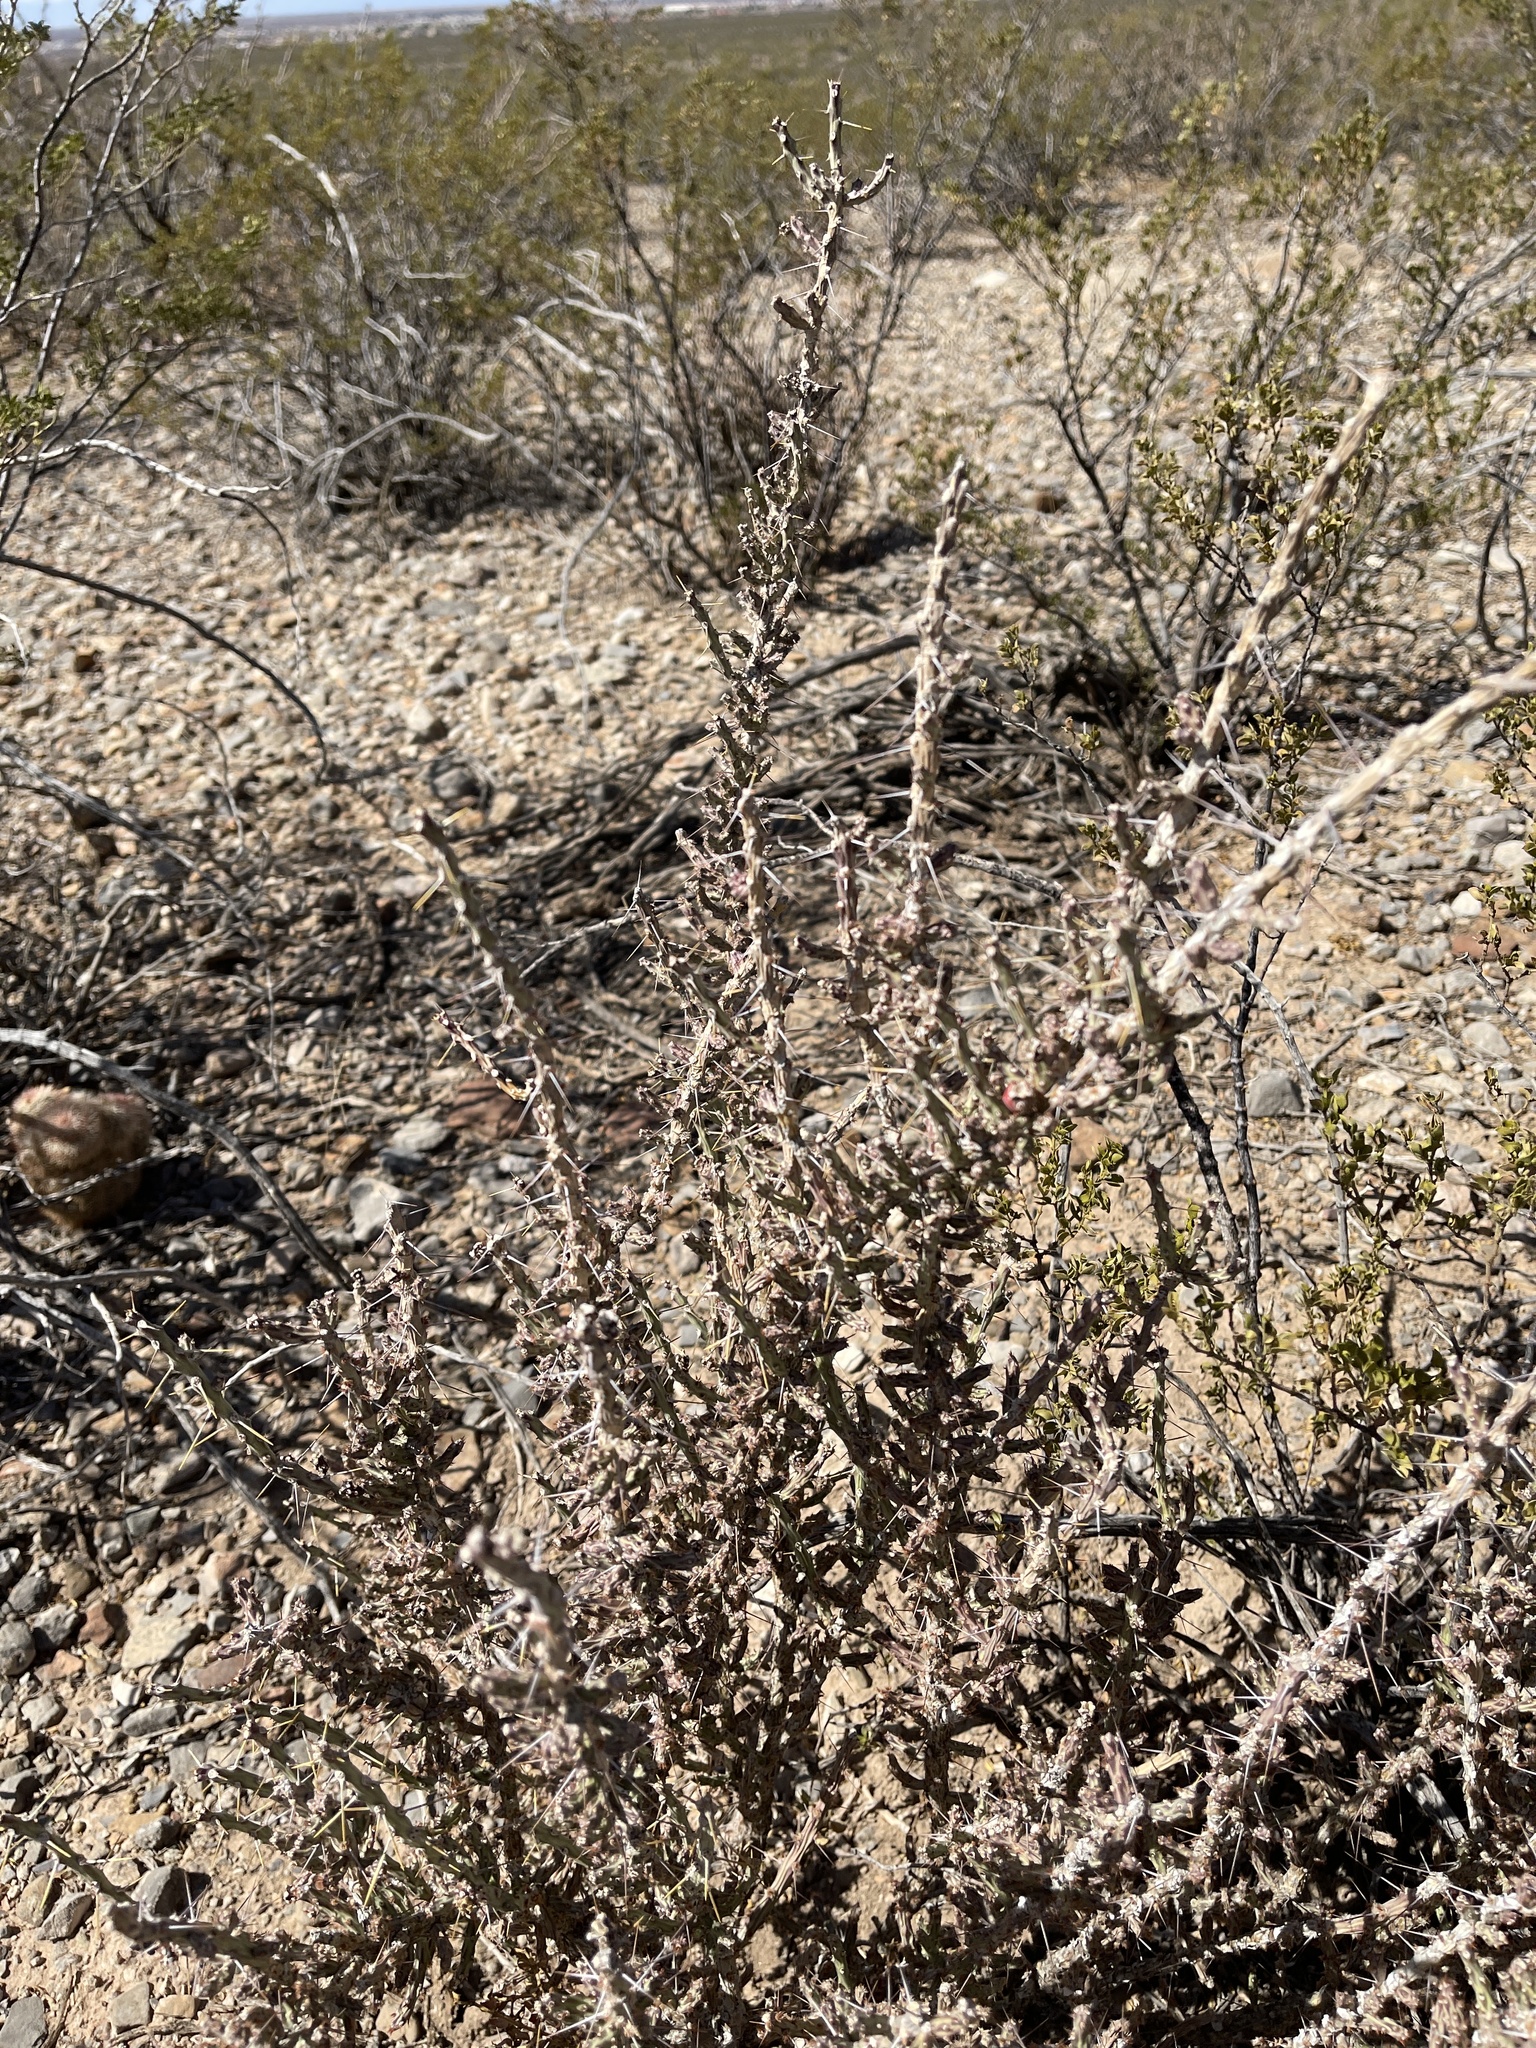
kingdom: Plantae
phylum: Tracheophyta
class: Magnoliopsida
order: Caryophyllales
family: Cactaceae
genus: Cylindropuntia
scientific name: Cylindropuntia leptocaulis
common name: Christmas cactus
